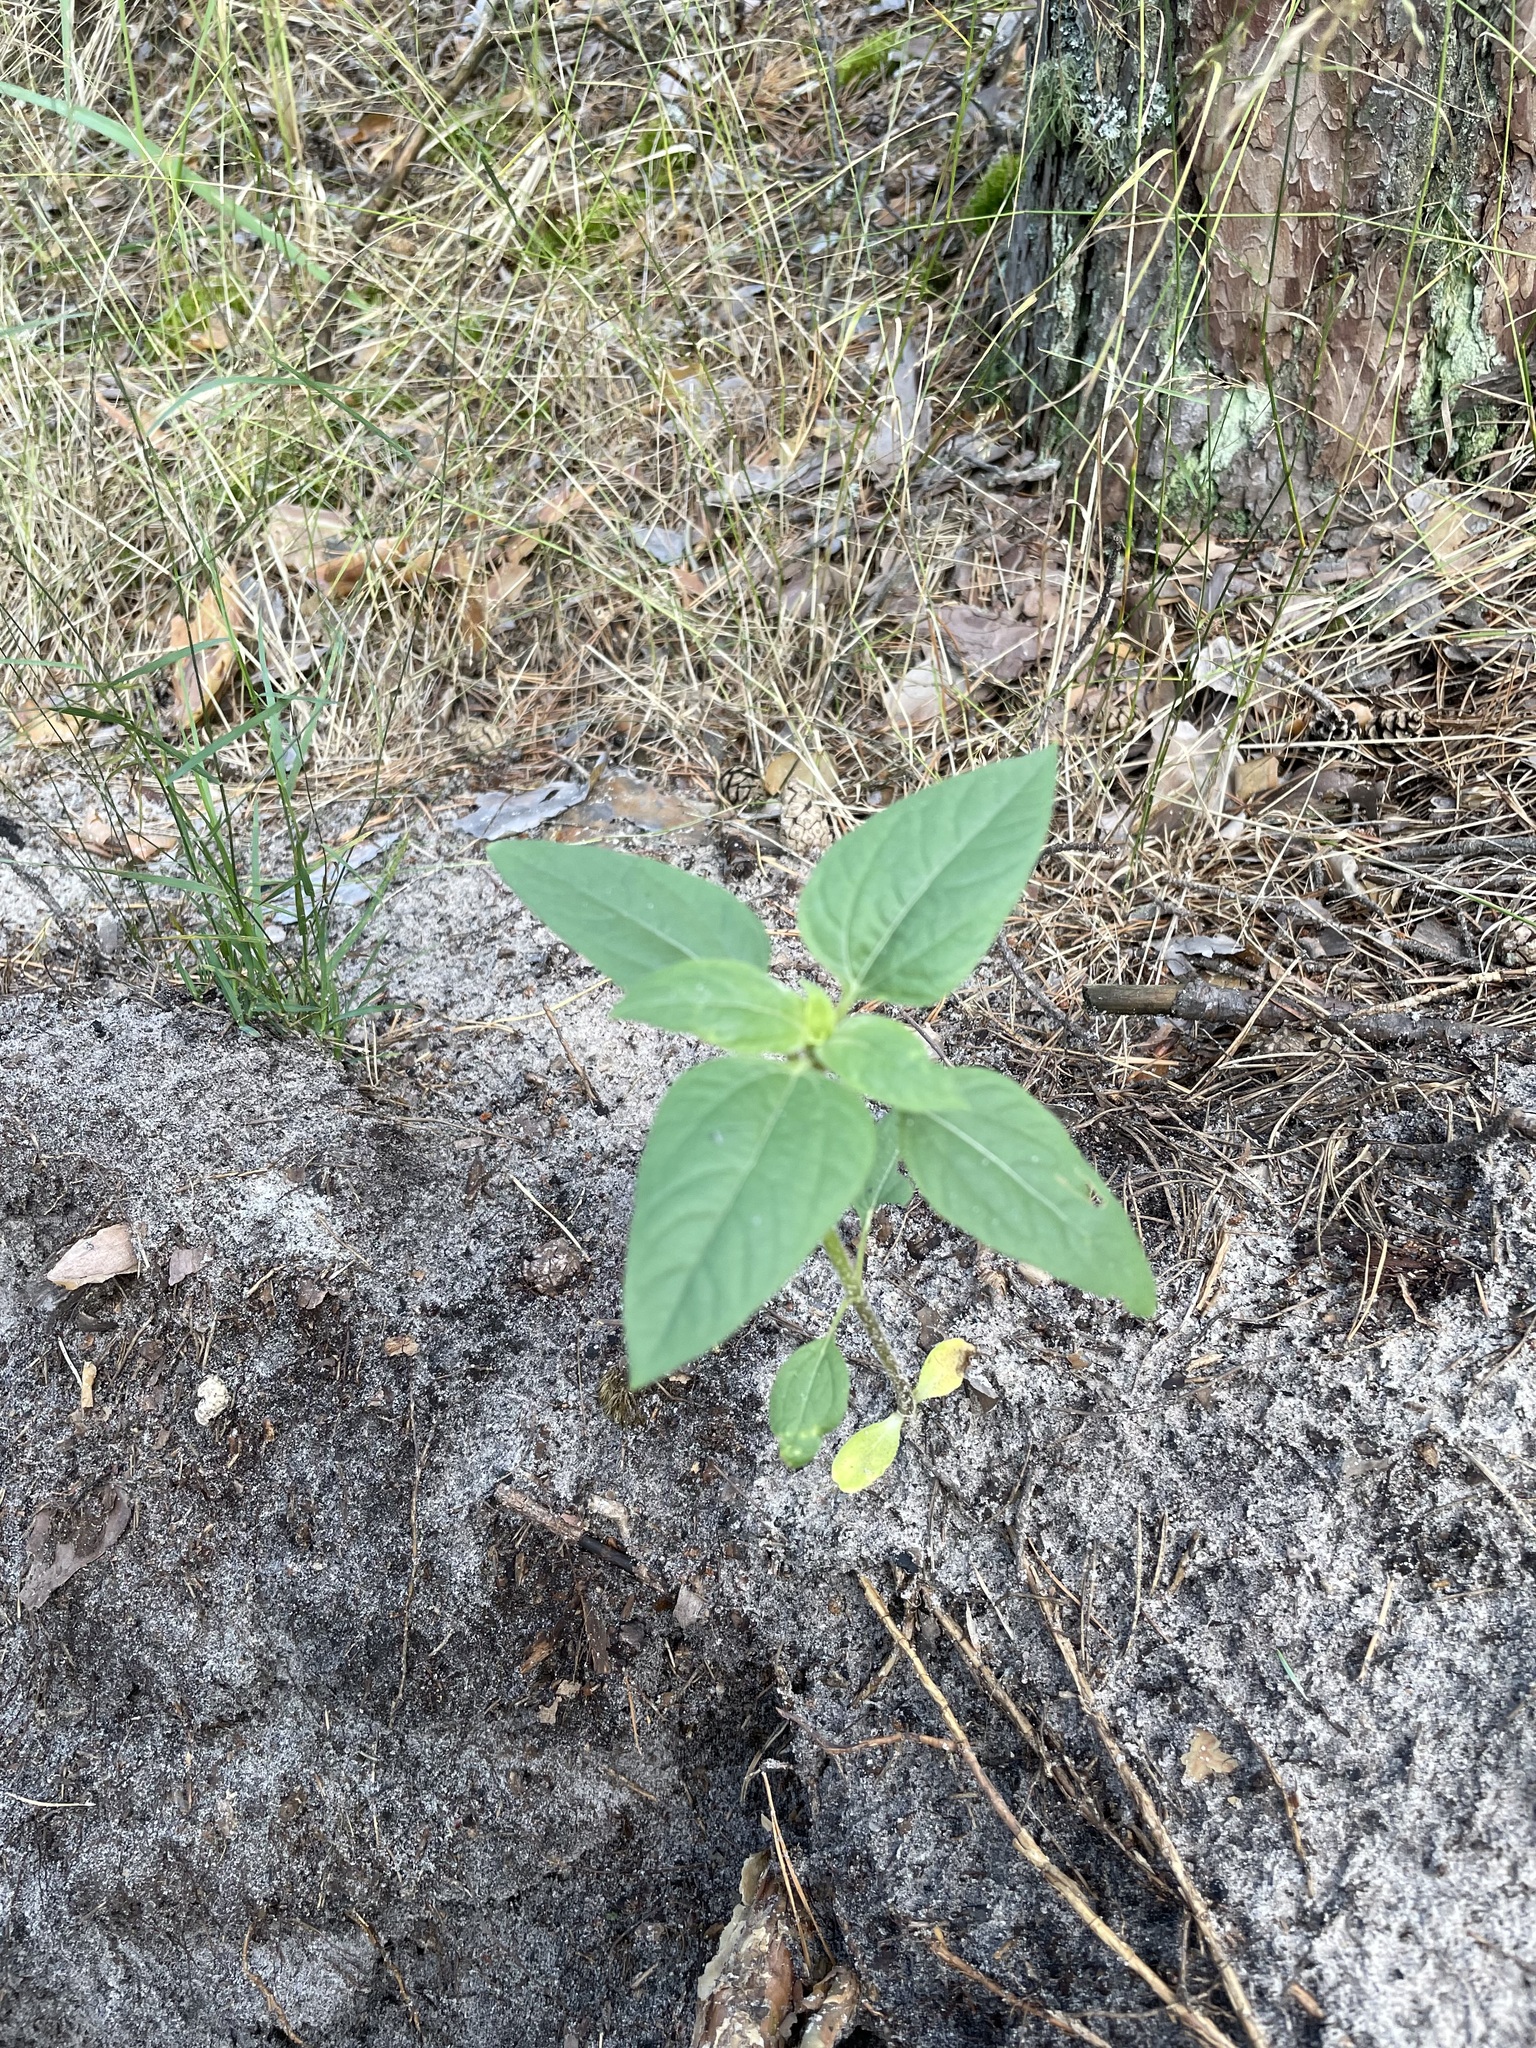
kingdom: Plantae
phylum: Tracheophyta
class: Magnoliopsida
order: Asterales
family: Asteraceae
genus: Helianthus
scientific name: Helianthus annuus
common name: Sunflower
